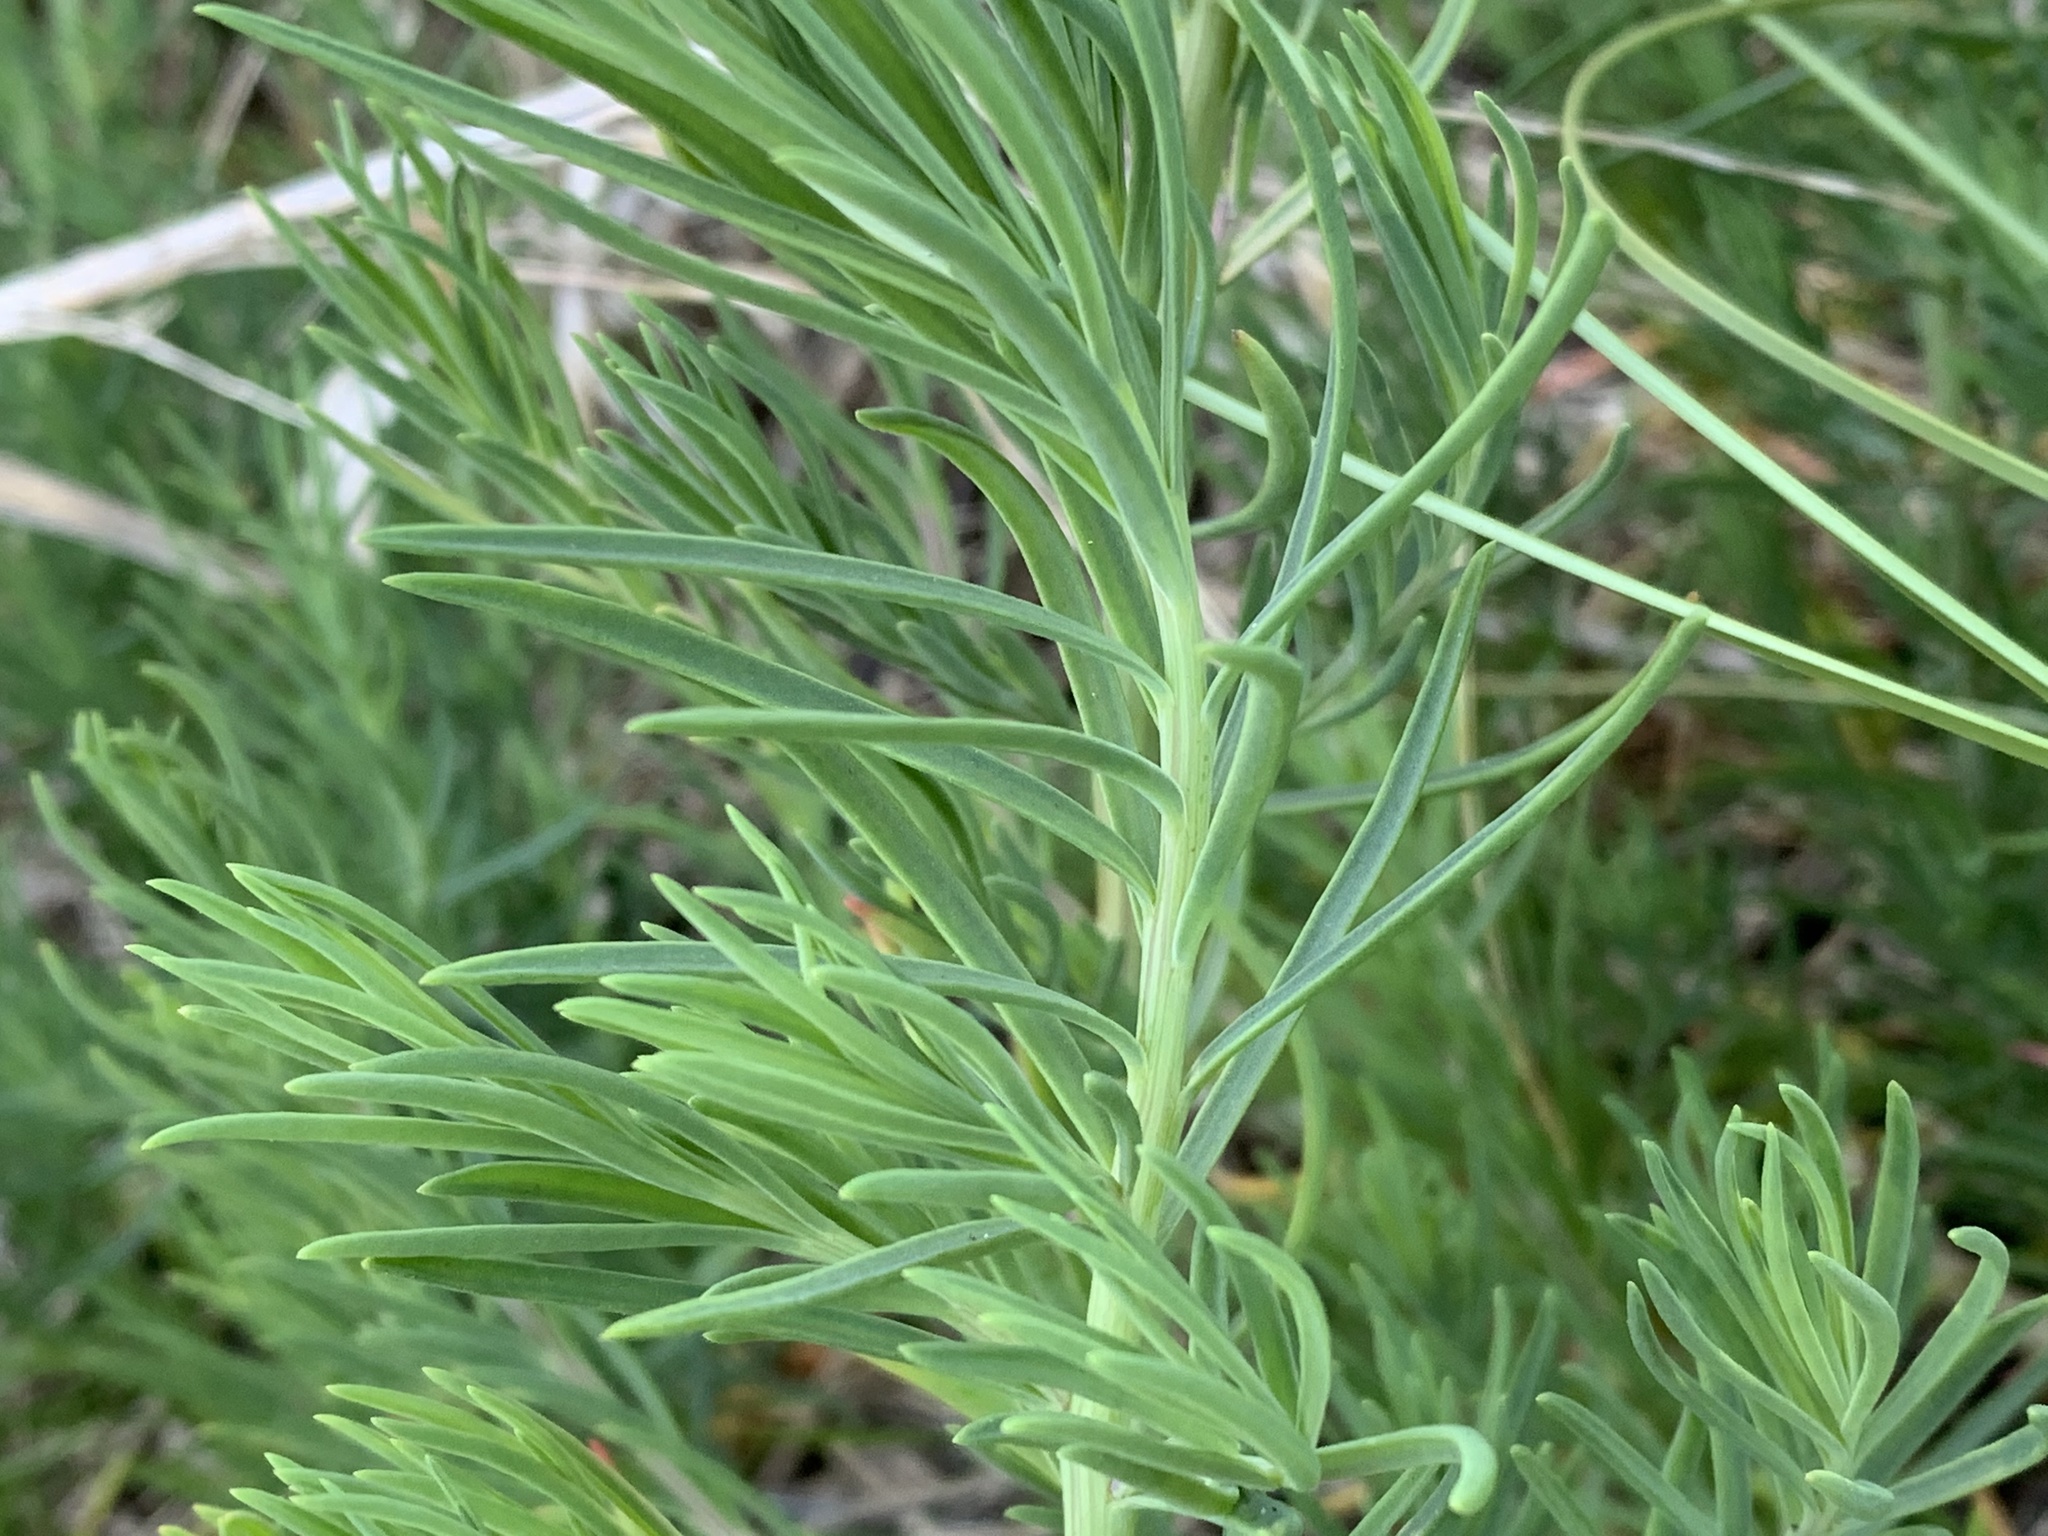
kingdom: Plantae
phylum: Tracheophyta
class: Magnoliopsida
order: Caryophyllales
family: Amaranthaceae
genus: Suaeda
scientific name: Suaeda linearis
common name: Annual seepweed
